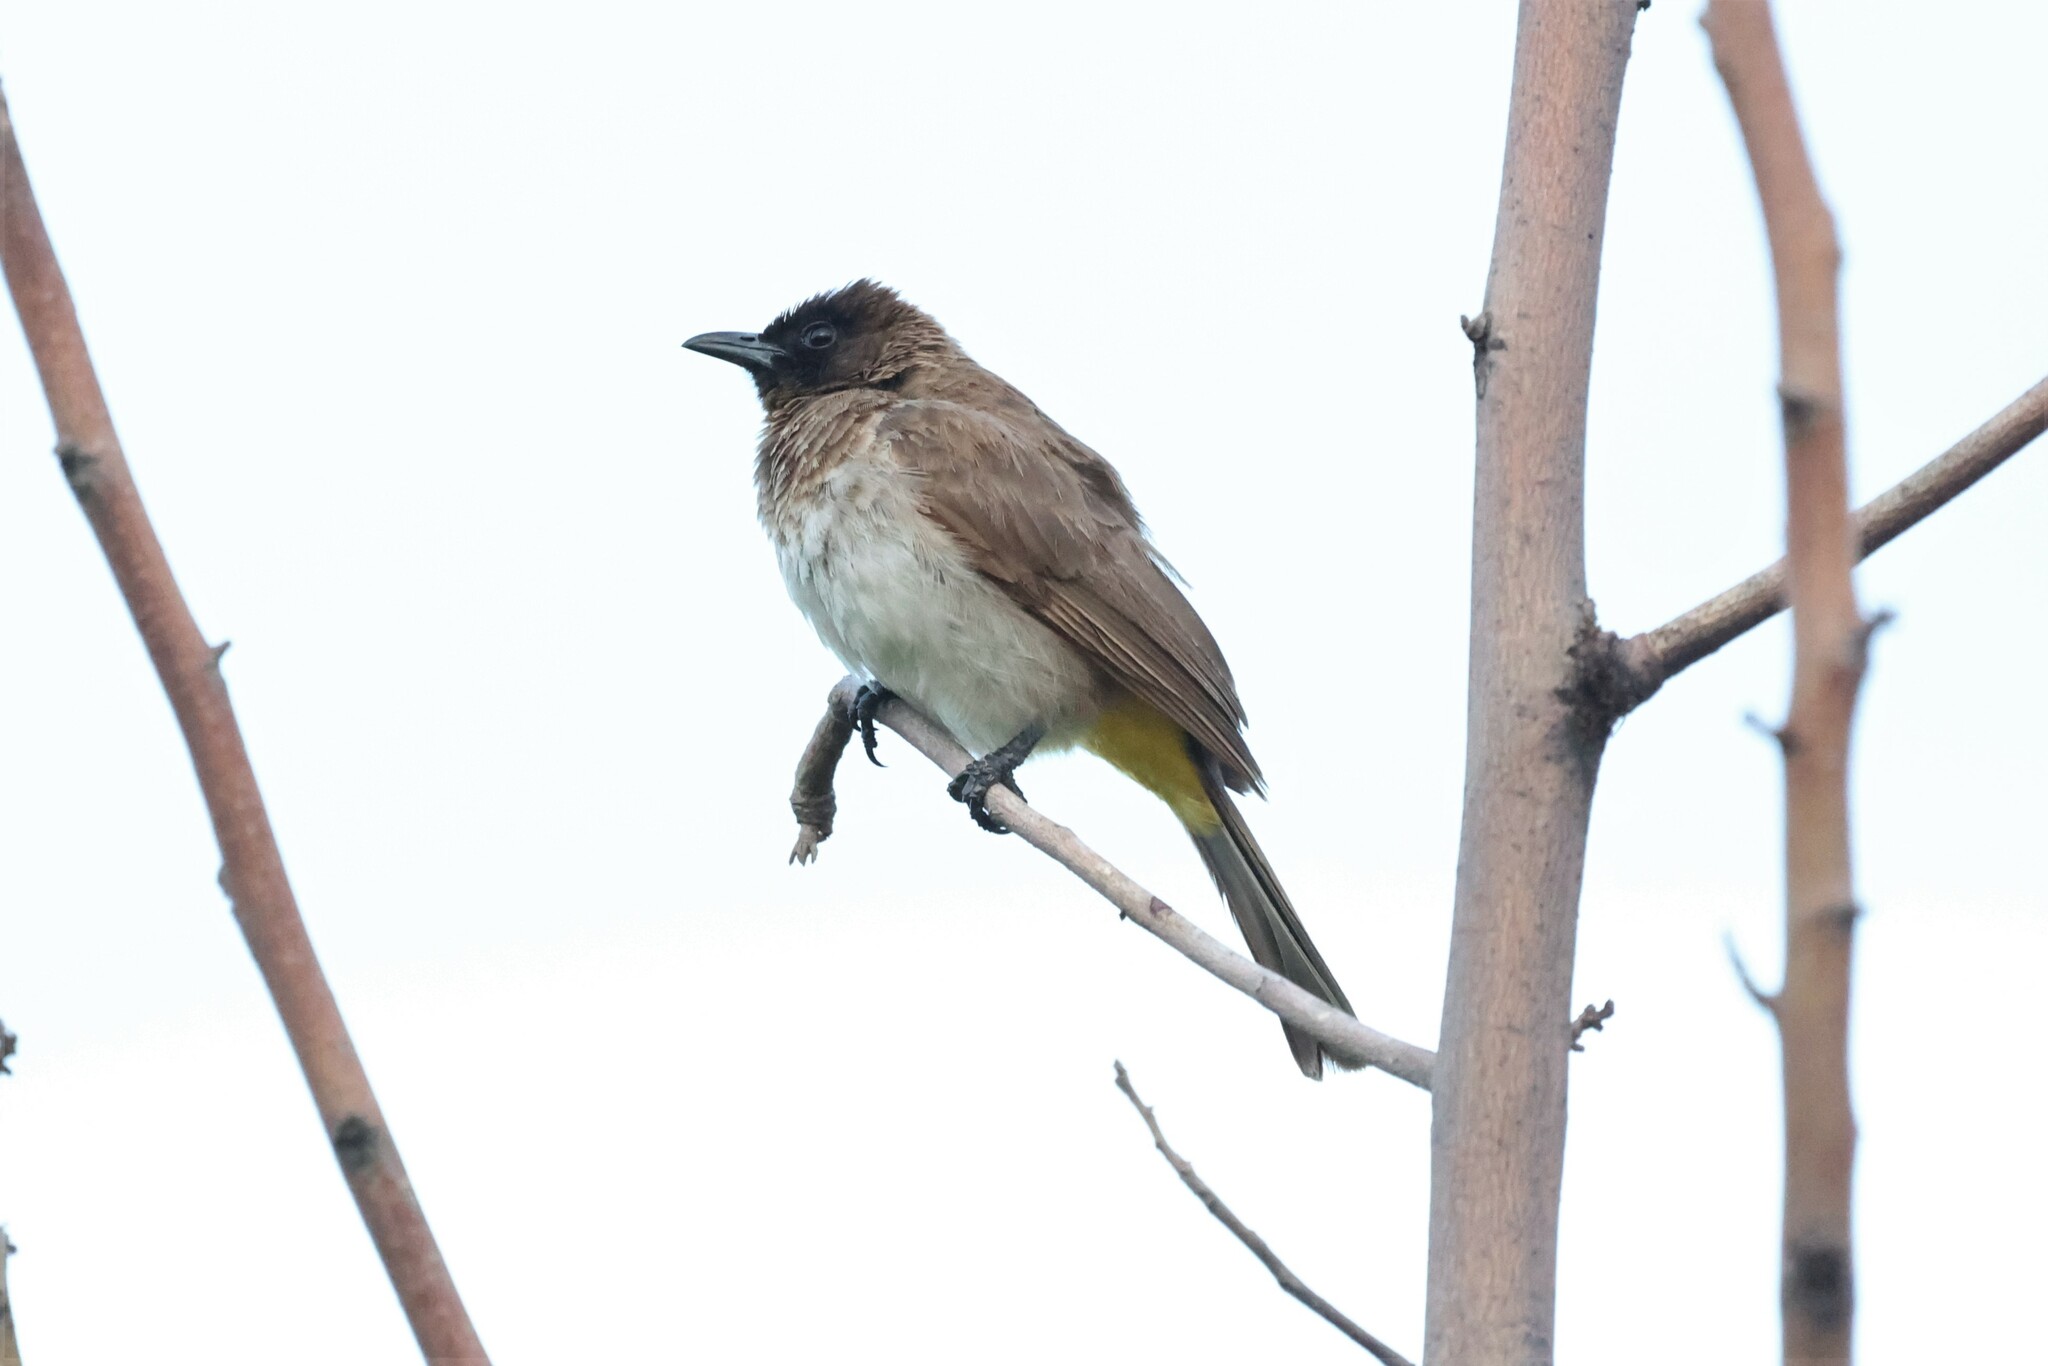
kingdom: Animalia
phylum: Chordata
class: Aves
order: Passeriformes
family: Pycnonotidae
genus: Pycnonotus
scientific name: Pycnonotus barbatus
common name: Common bulbul
